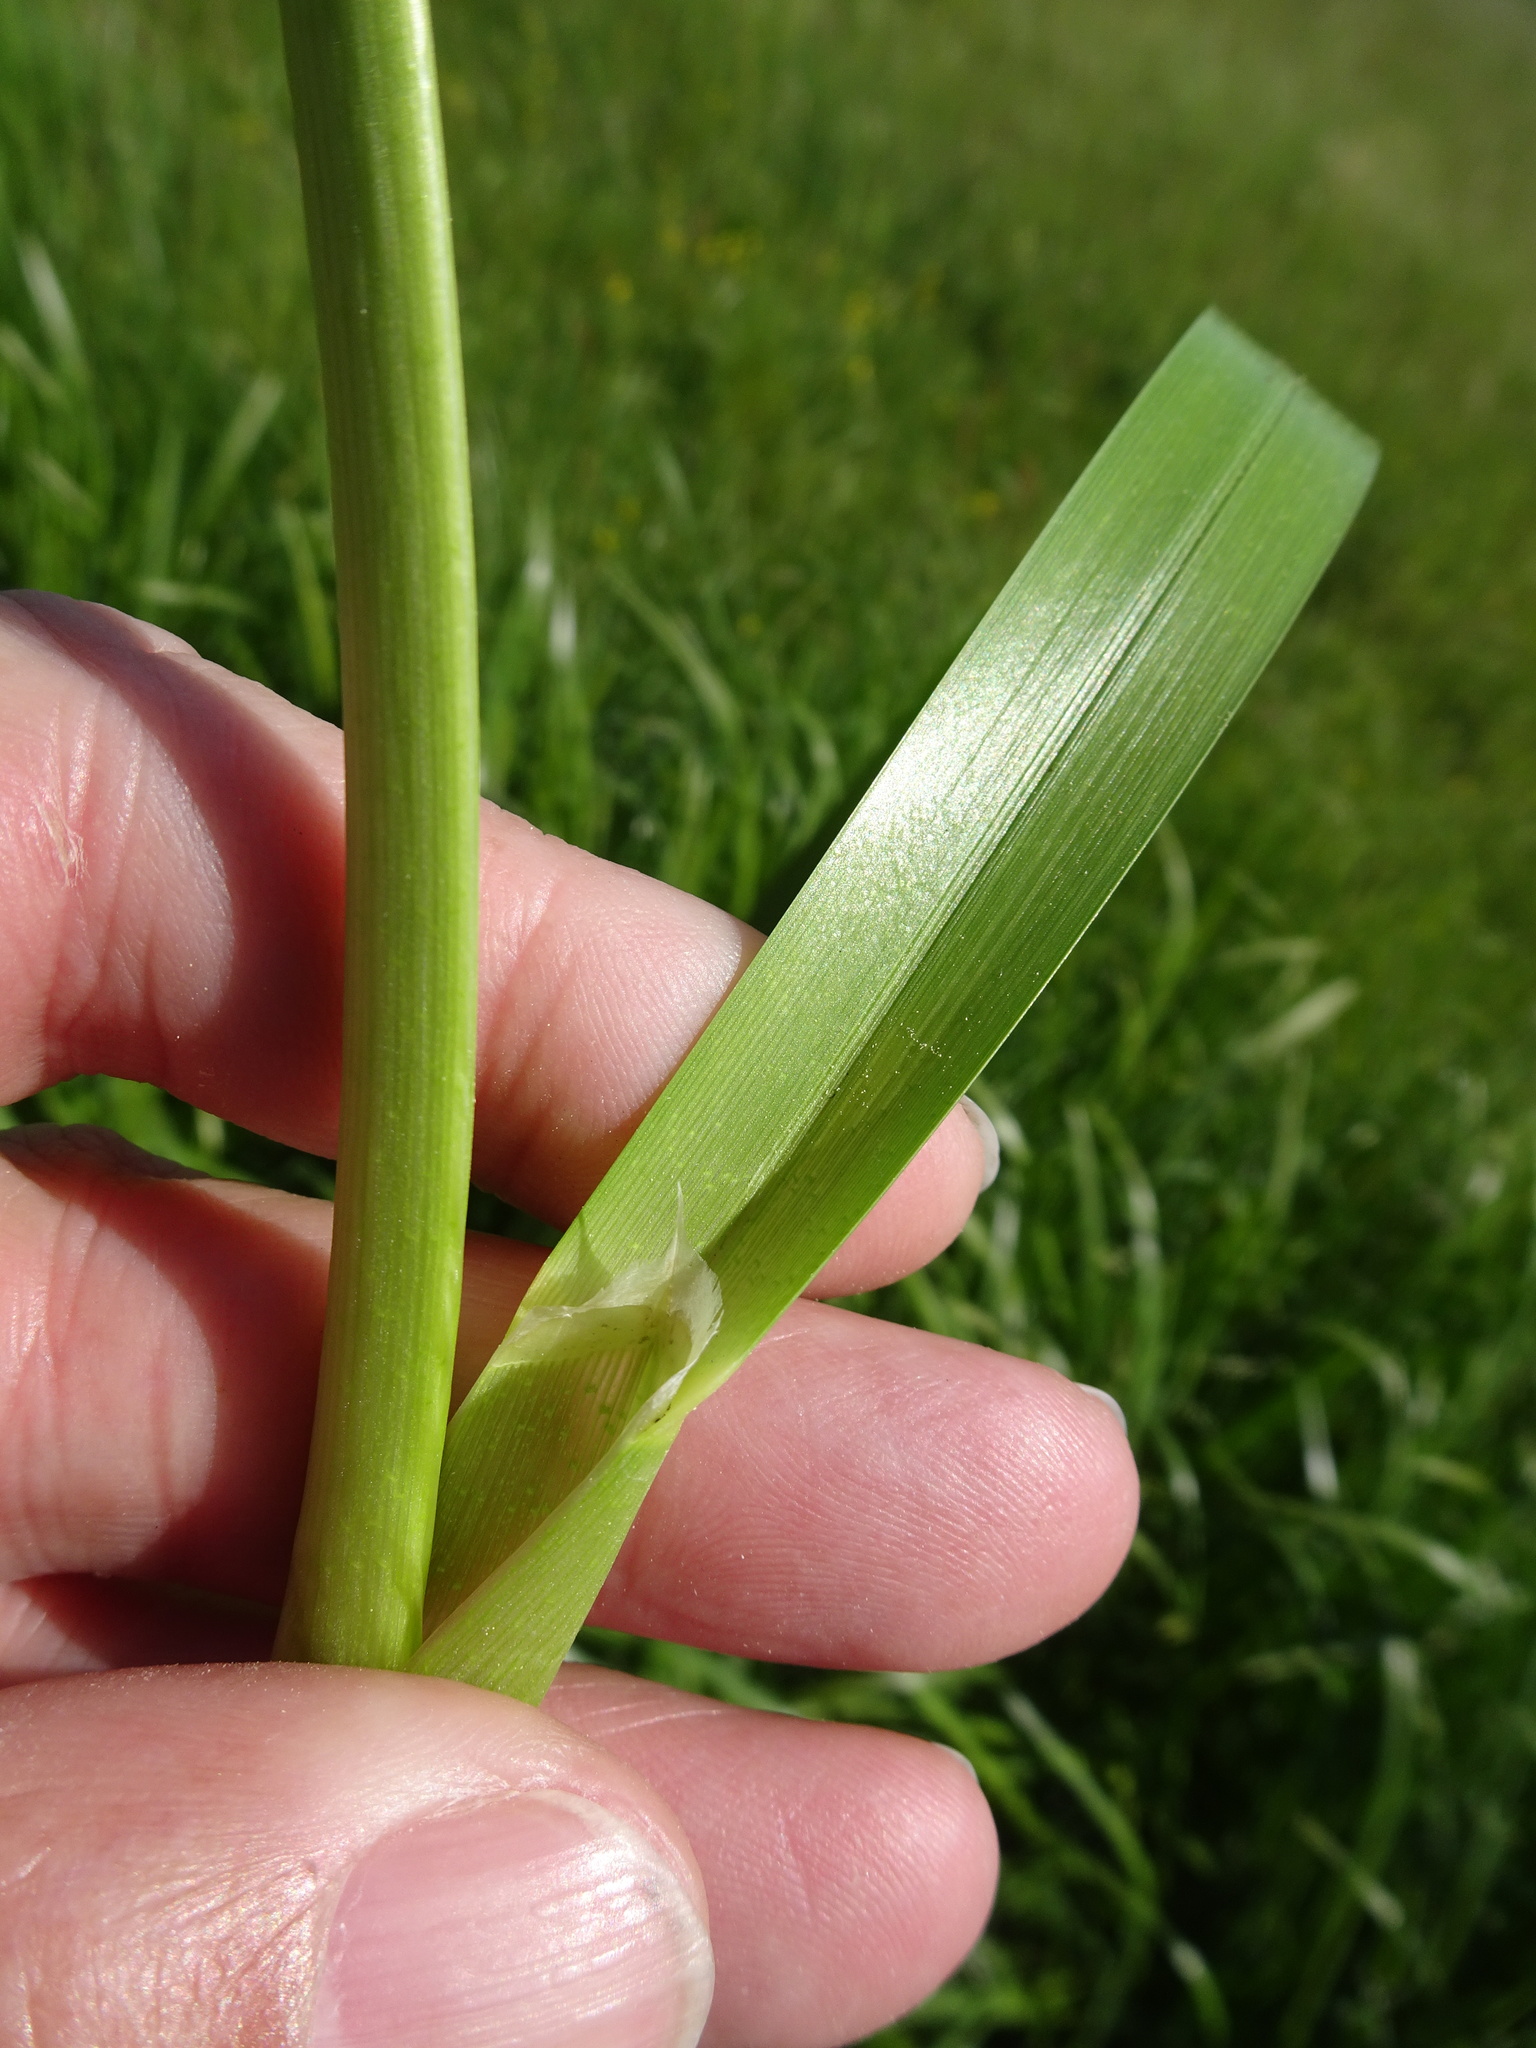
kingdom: Plantae
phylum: Tracheophyta
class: Liliopsida
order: Poales
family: Poaceae
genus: Glyceria
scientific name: Glyceria maxima
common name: Reed mannagrass
